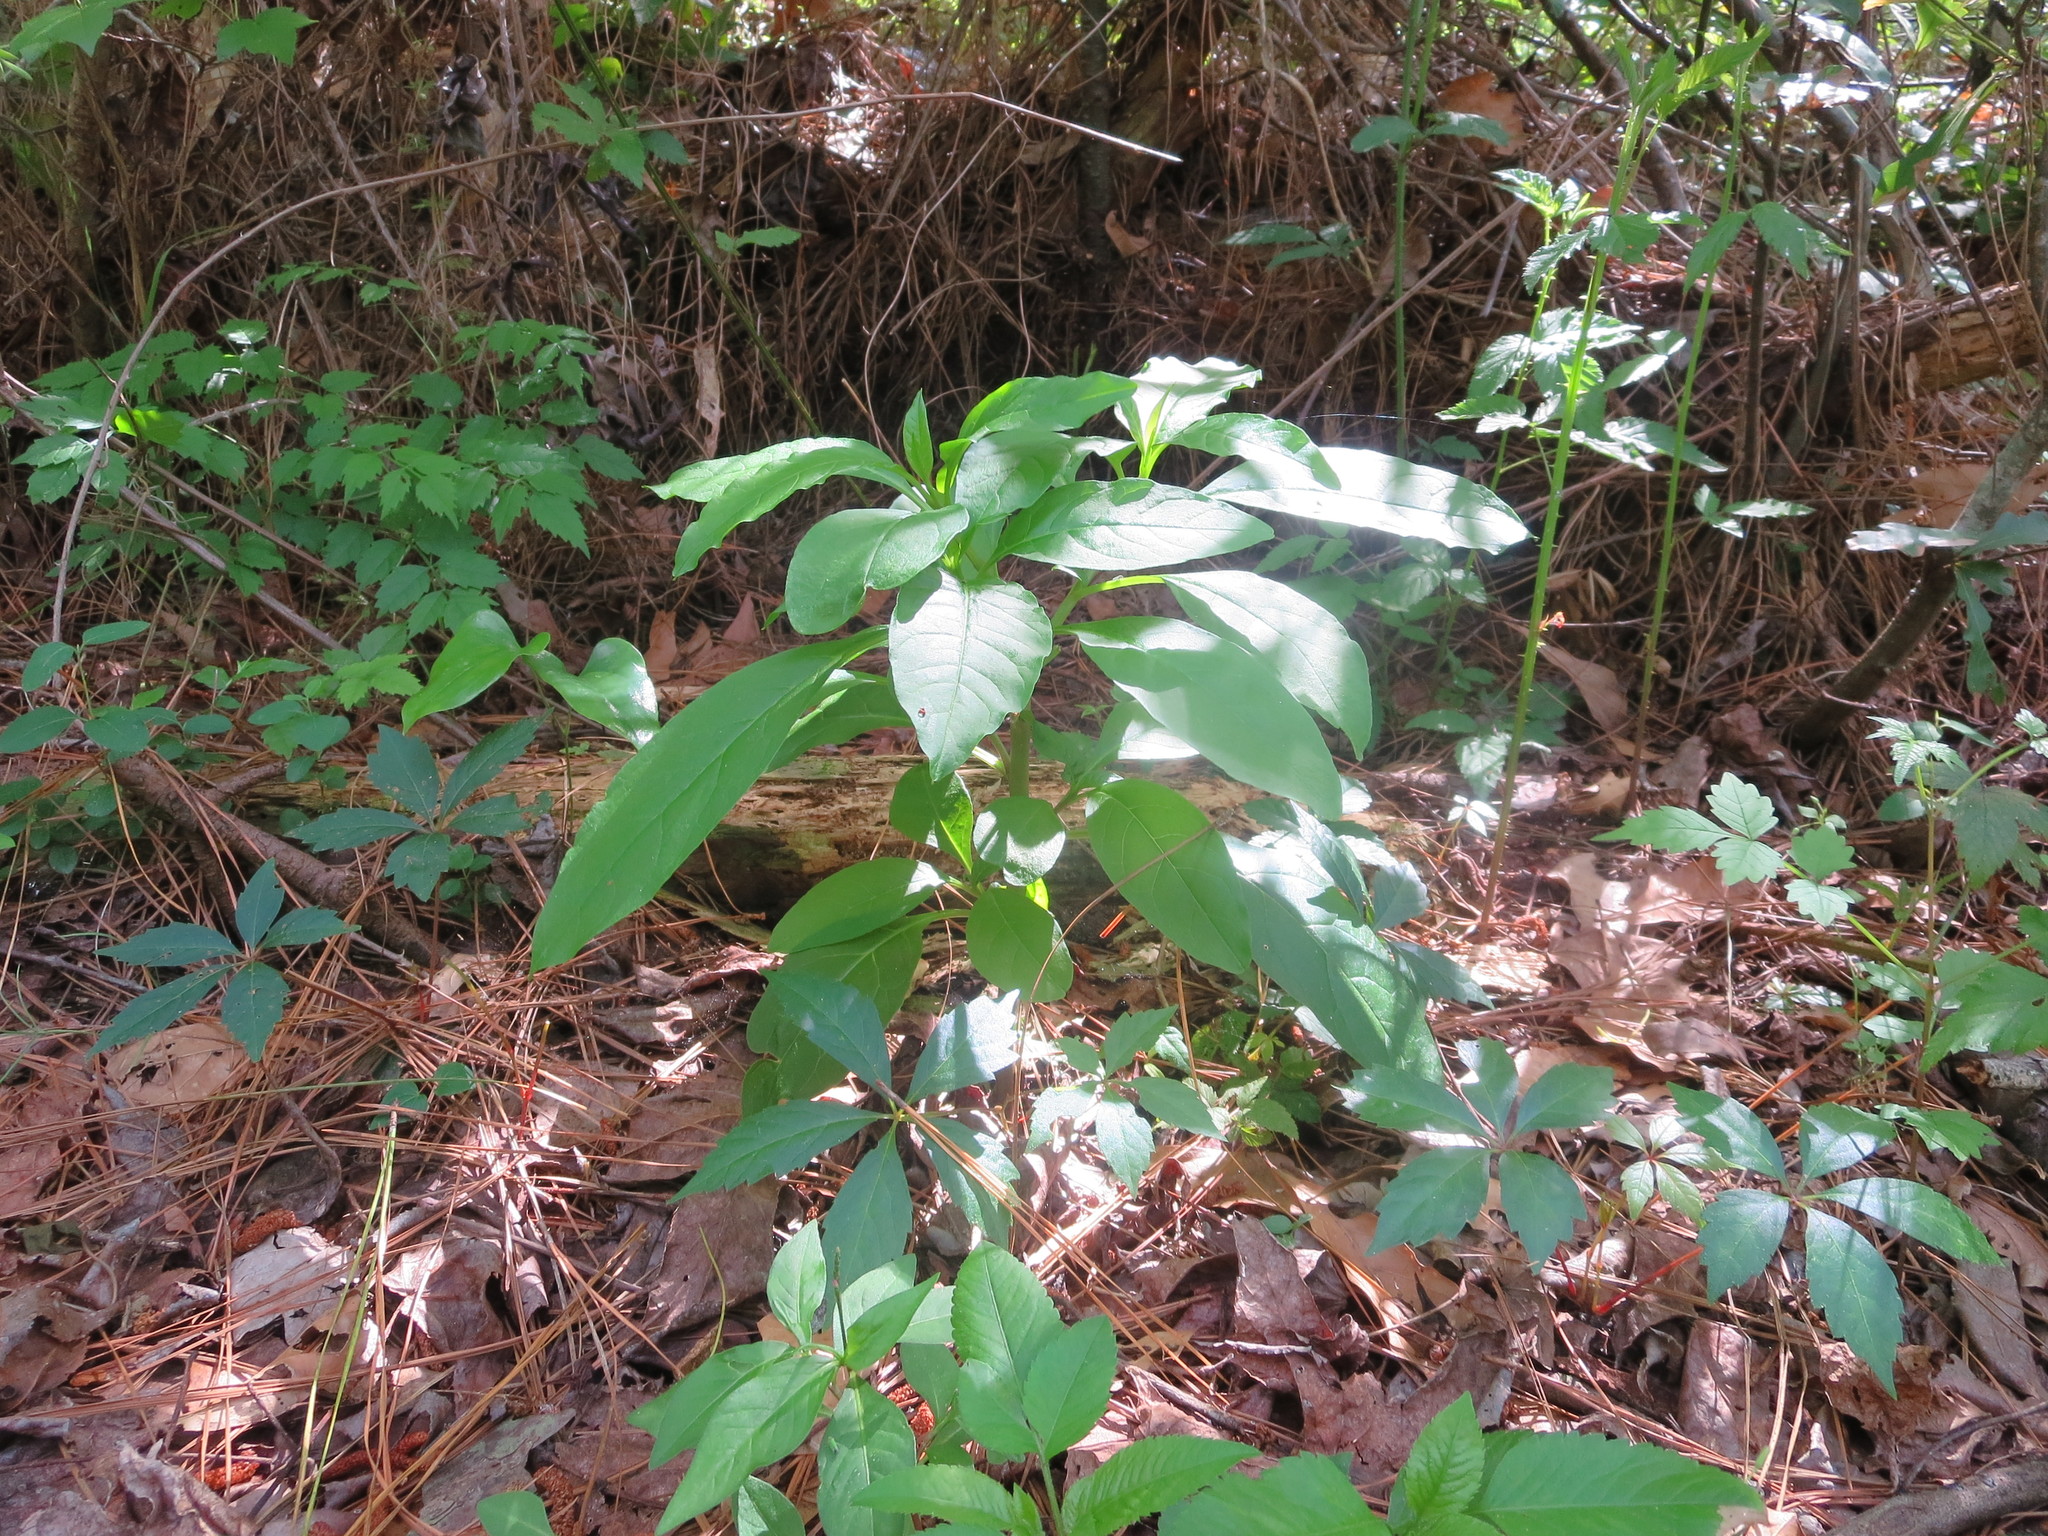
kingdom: Plantae
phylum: Tracheophyta
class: Magnoliopsida
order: Caryophyllales
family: Phytolaccaceae
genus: Phytolacca
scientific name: Phytolacca americana
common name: American pokeweed
